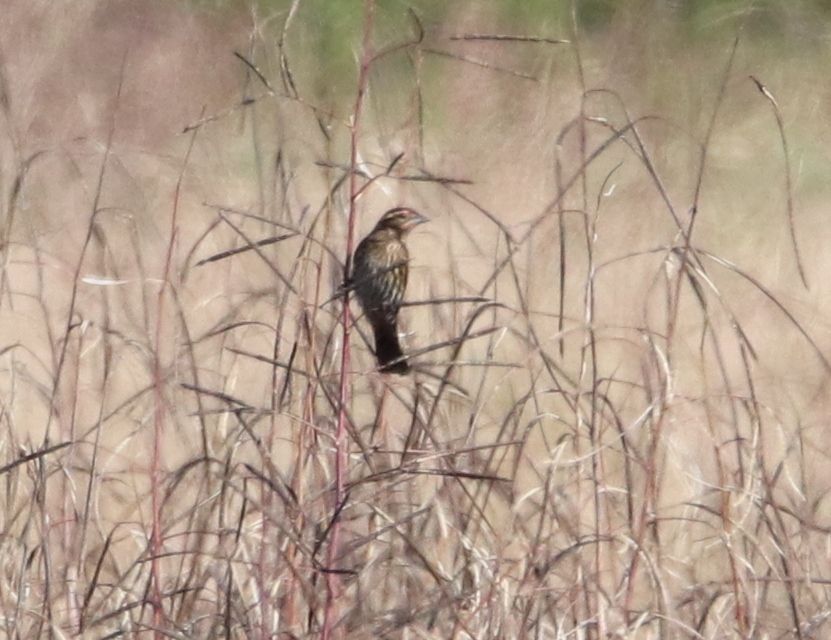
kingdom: Animalia
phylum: Chordata
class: Aves
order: Passeriformes
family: Icteridae
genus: Agelaius
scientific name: Agelaius phoeniceus
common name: Red-winged blackbird
